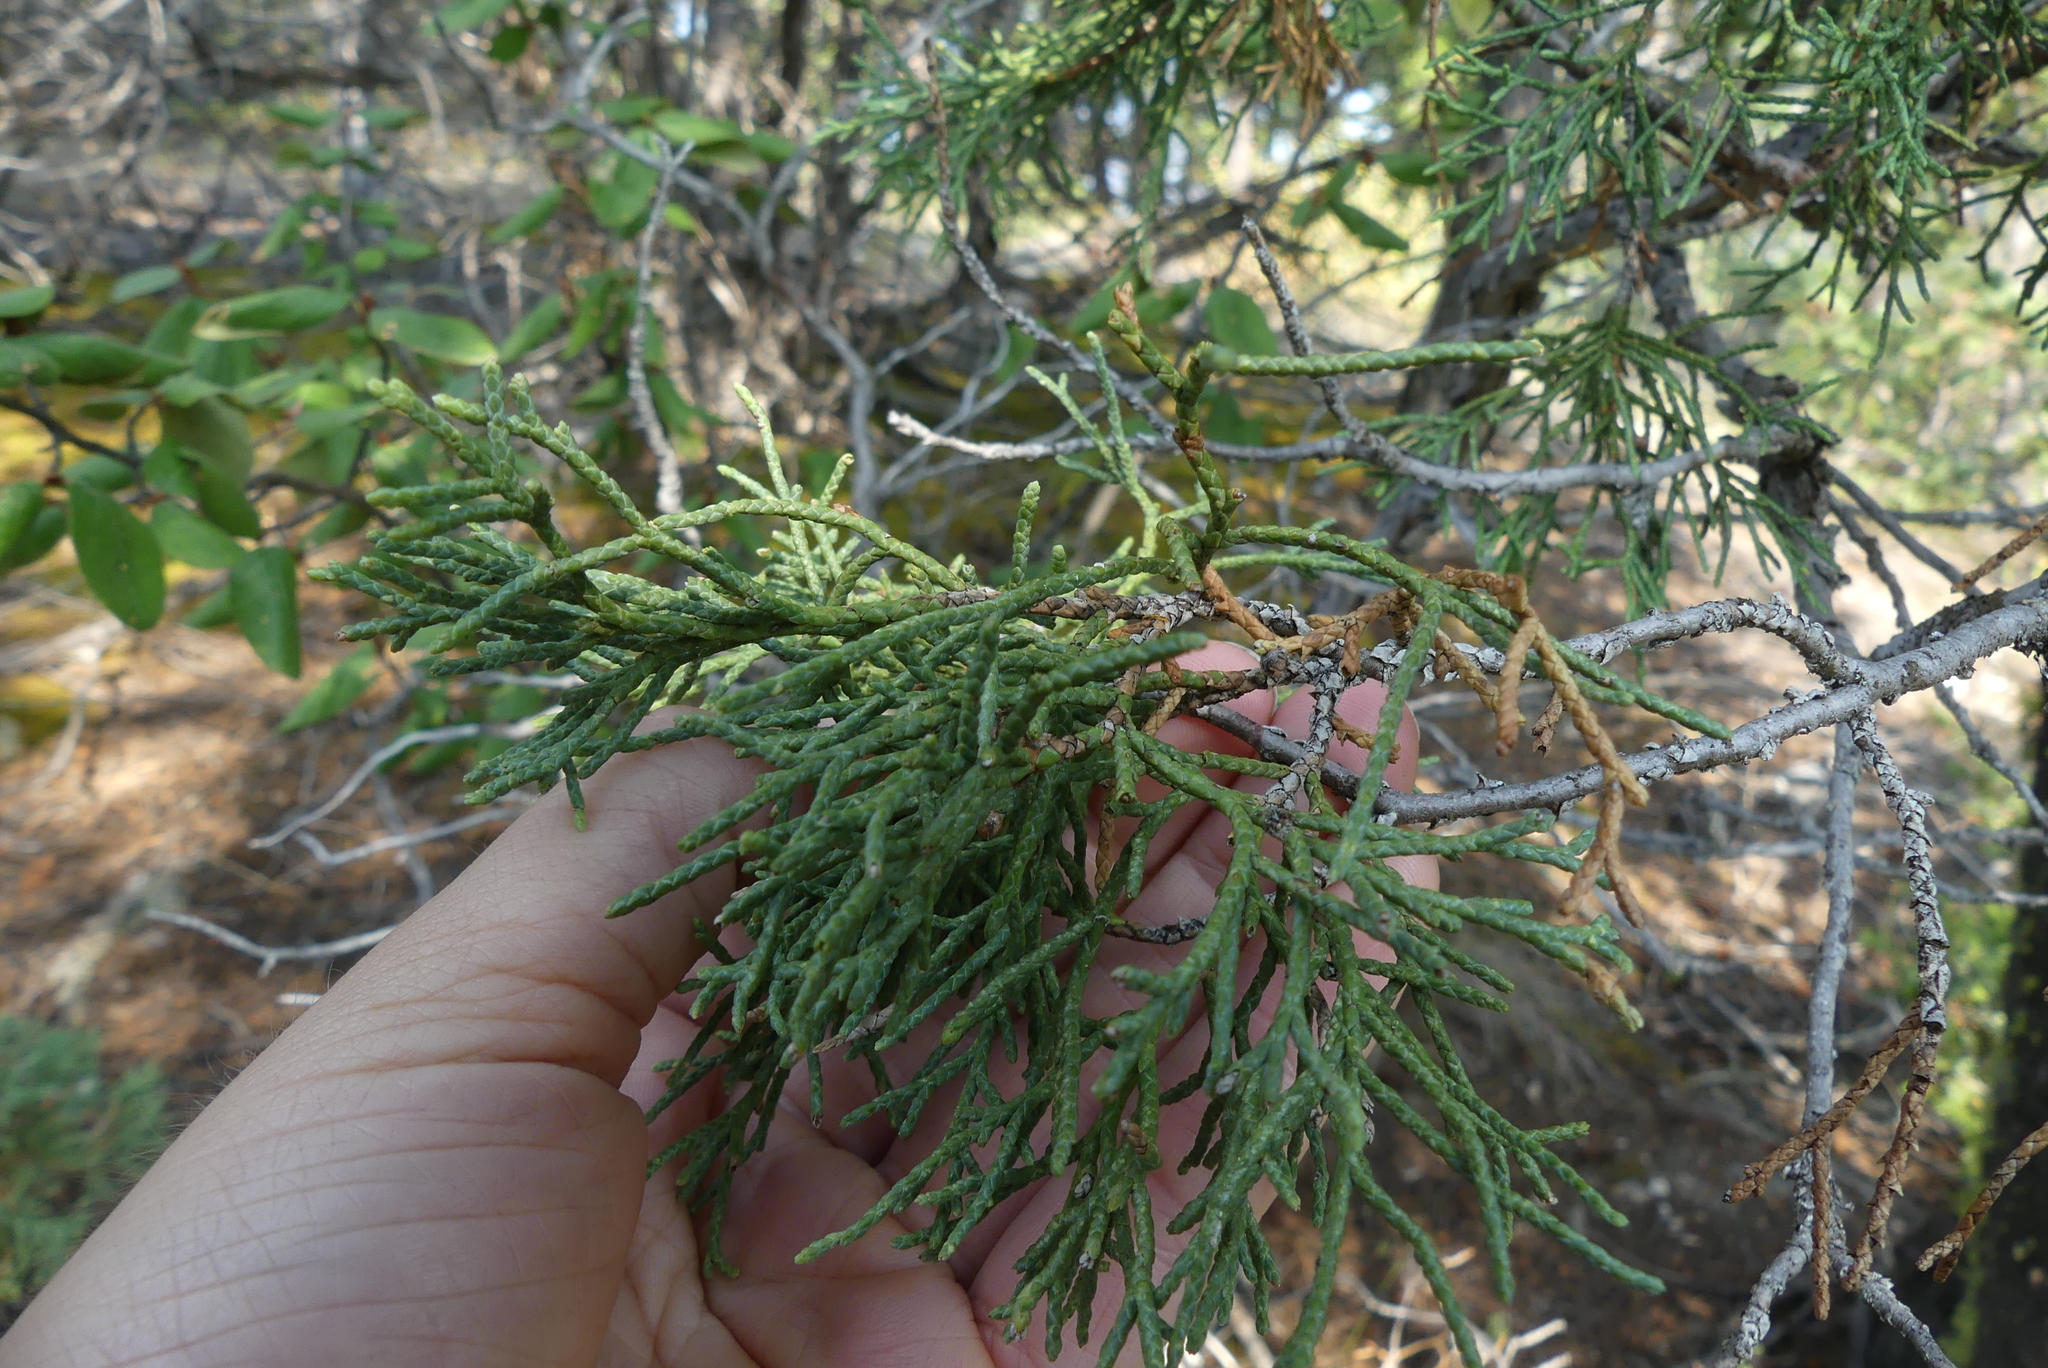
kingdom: Plantae
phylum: Tracheophyta
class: Pinopsida
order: Pinales
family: Cupressaceae
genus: Juniperus
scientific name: Juniperus scopulorum
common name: Rocky mountain juniper
